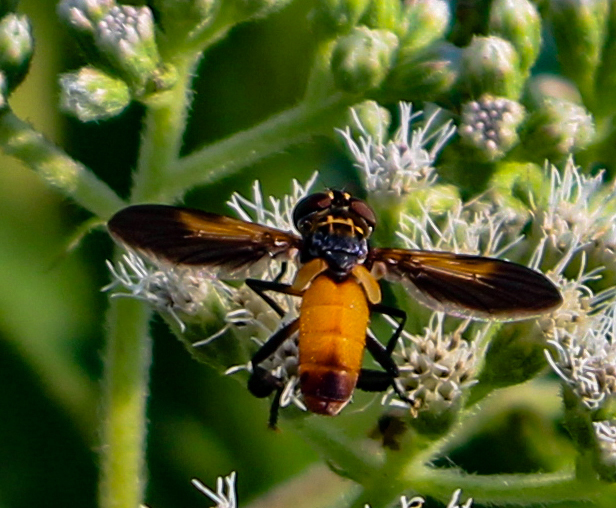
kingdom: Animalia
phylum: Arthropoda
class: Insecta
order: Diptera
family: Tachinidae
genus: Trichopoda
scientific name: Trichopoda pennipes
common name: Tachinid fly
